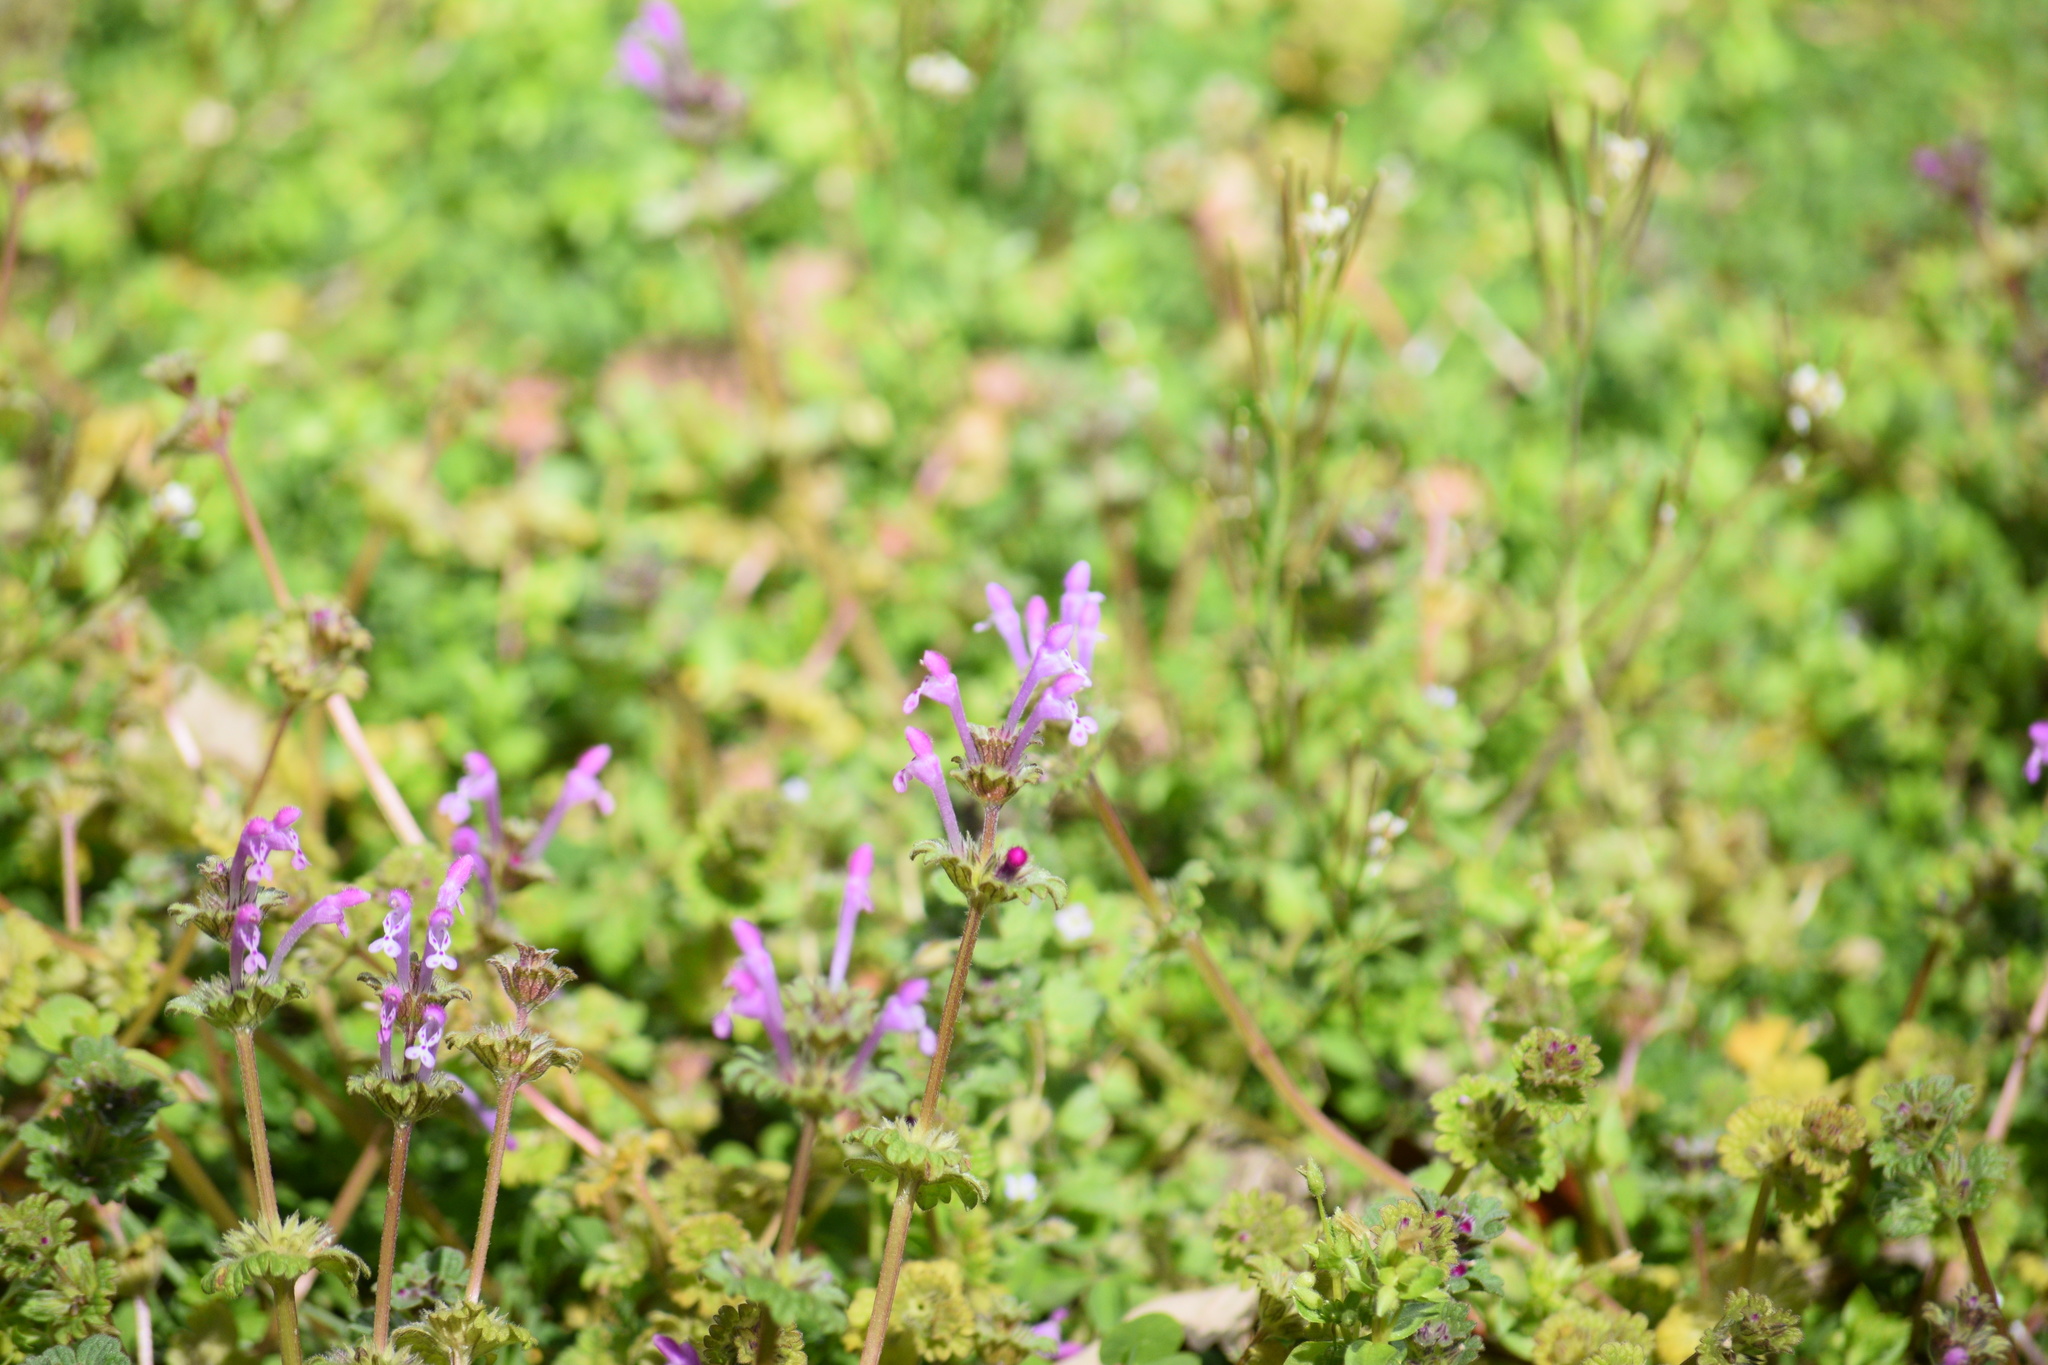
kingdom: Plantae
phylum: Tracheophyta
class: Magnoliopsida
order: Lamiales
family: Lamiaceae
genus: Lamium
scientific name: Lamium amplexicaule
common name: Henbit dead-nettle
